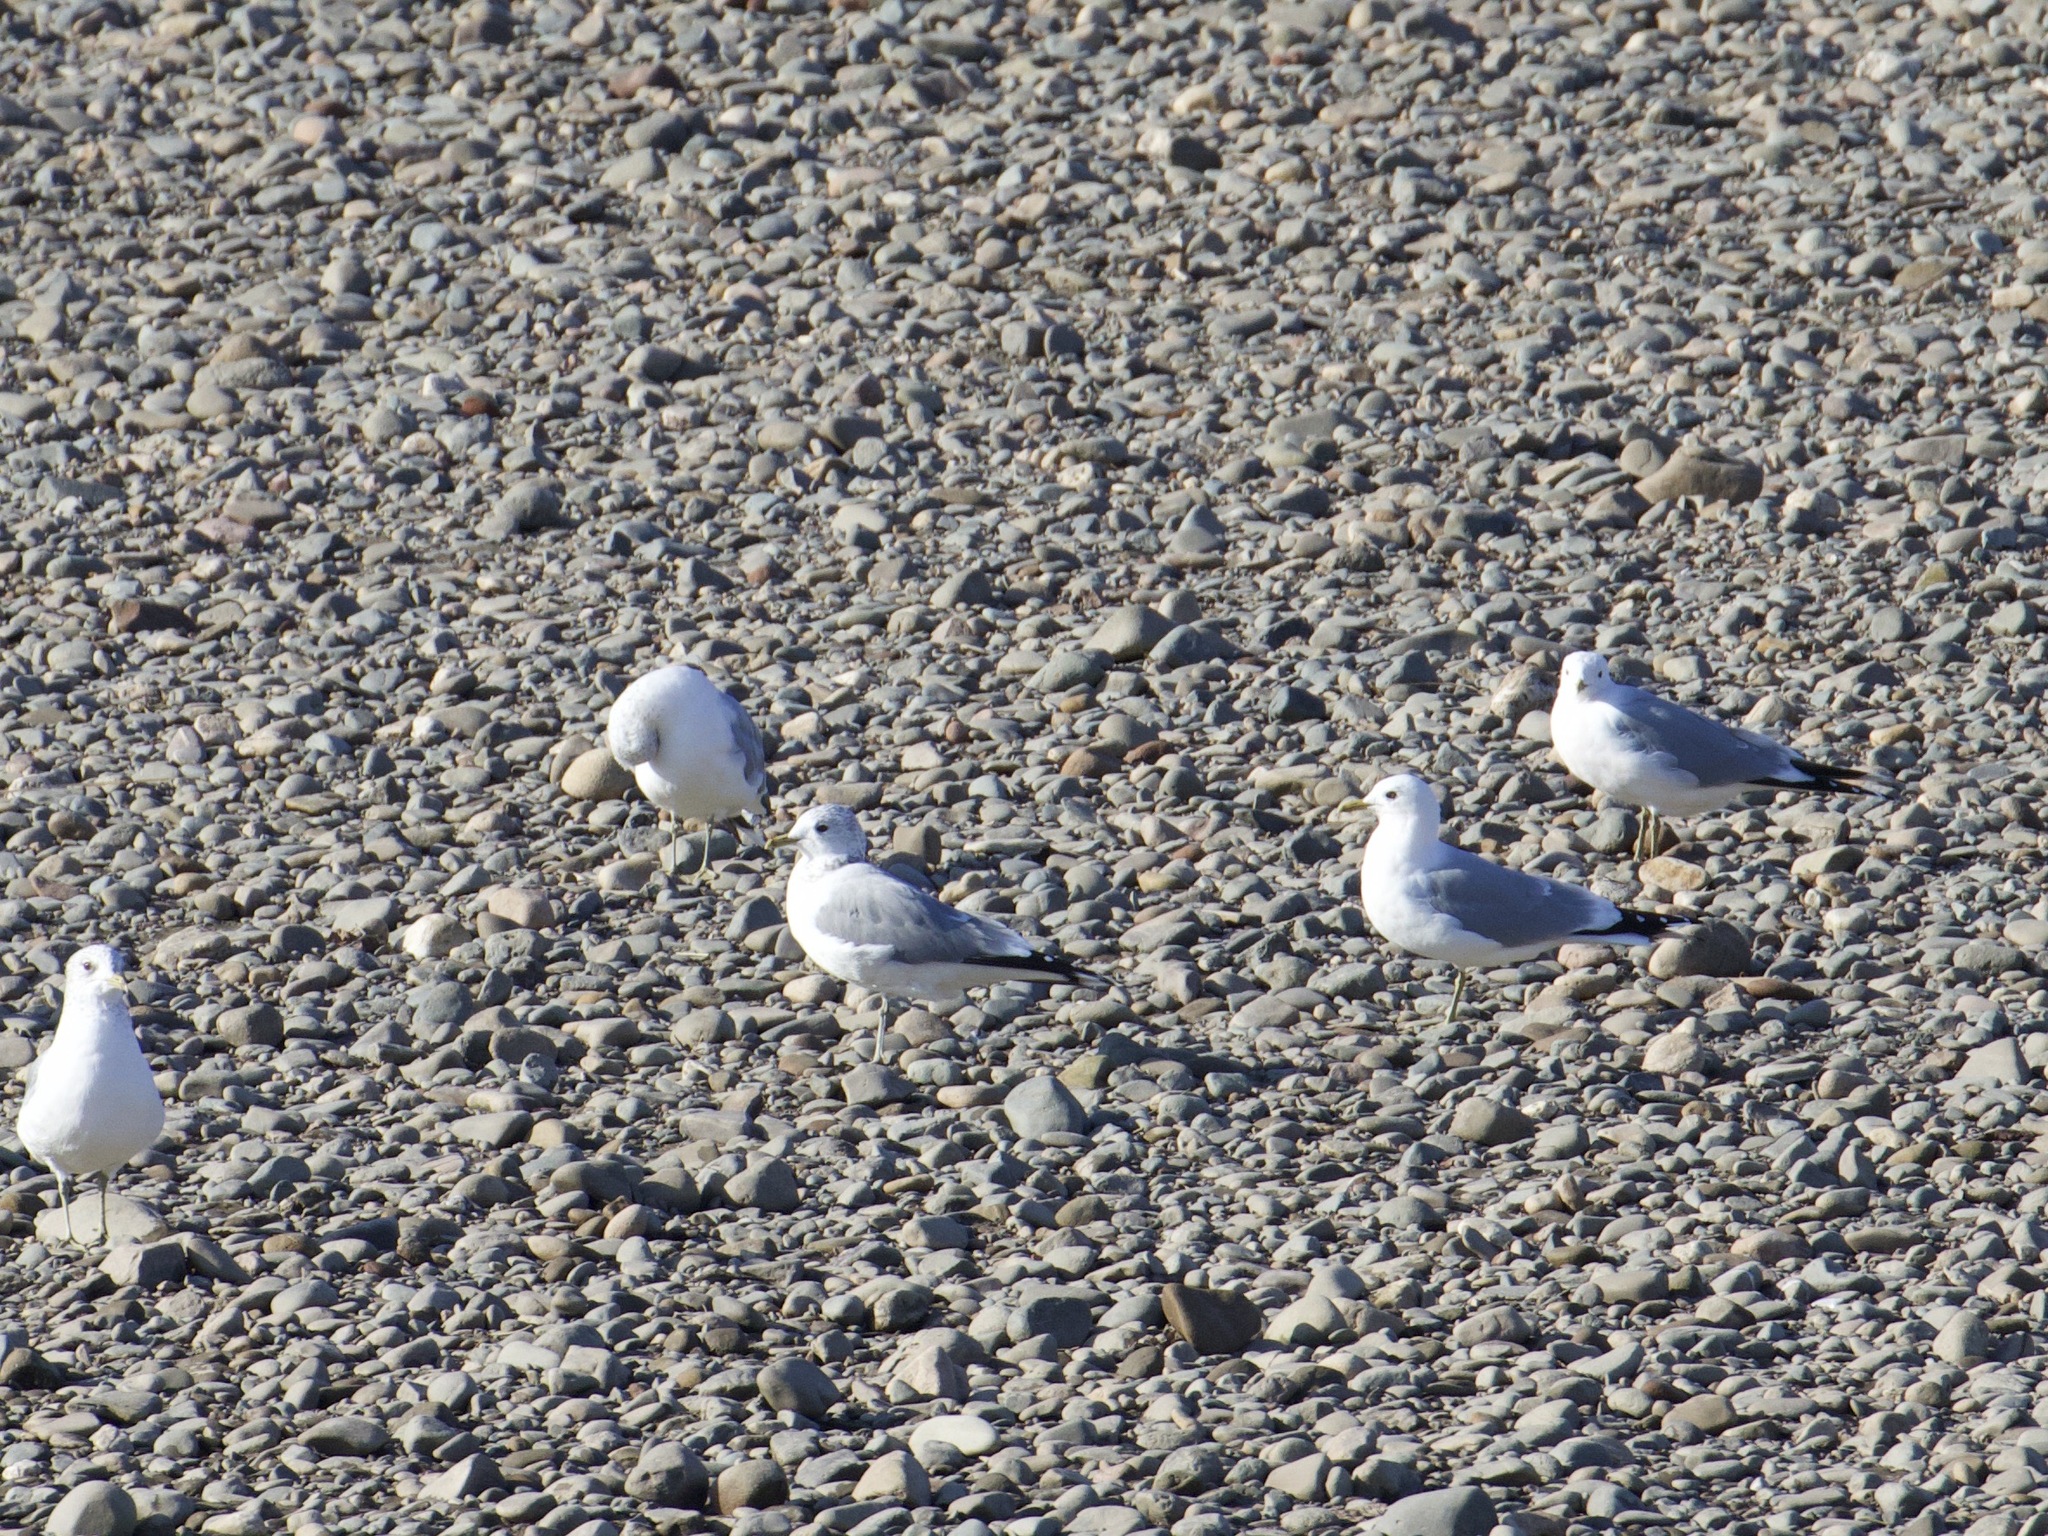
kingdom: Animalia
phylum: Chordata
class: Aves
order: Charadriiformes
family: Laridae
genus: Larus
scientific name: Larus canus
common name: Mew gull
